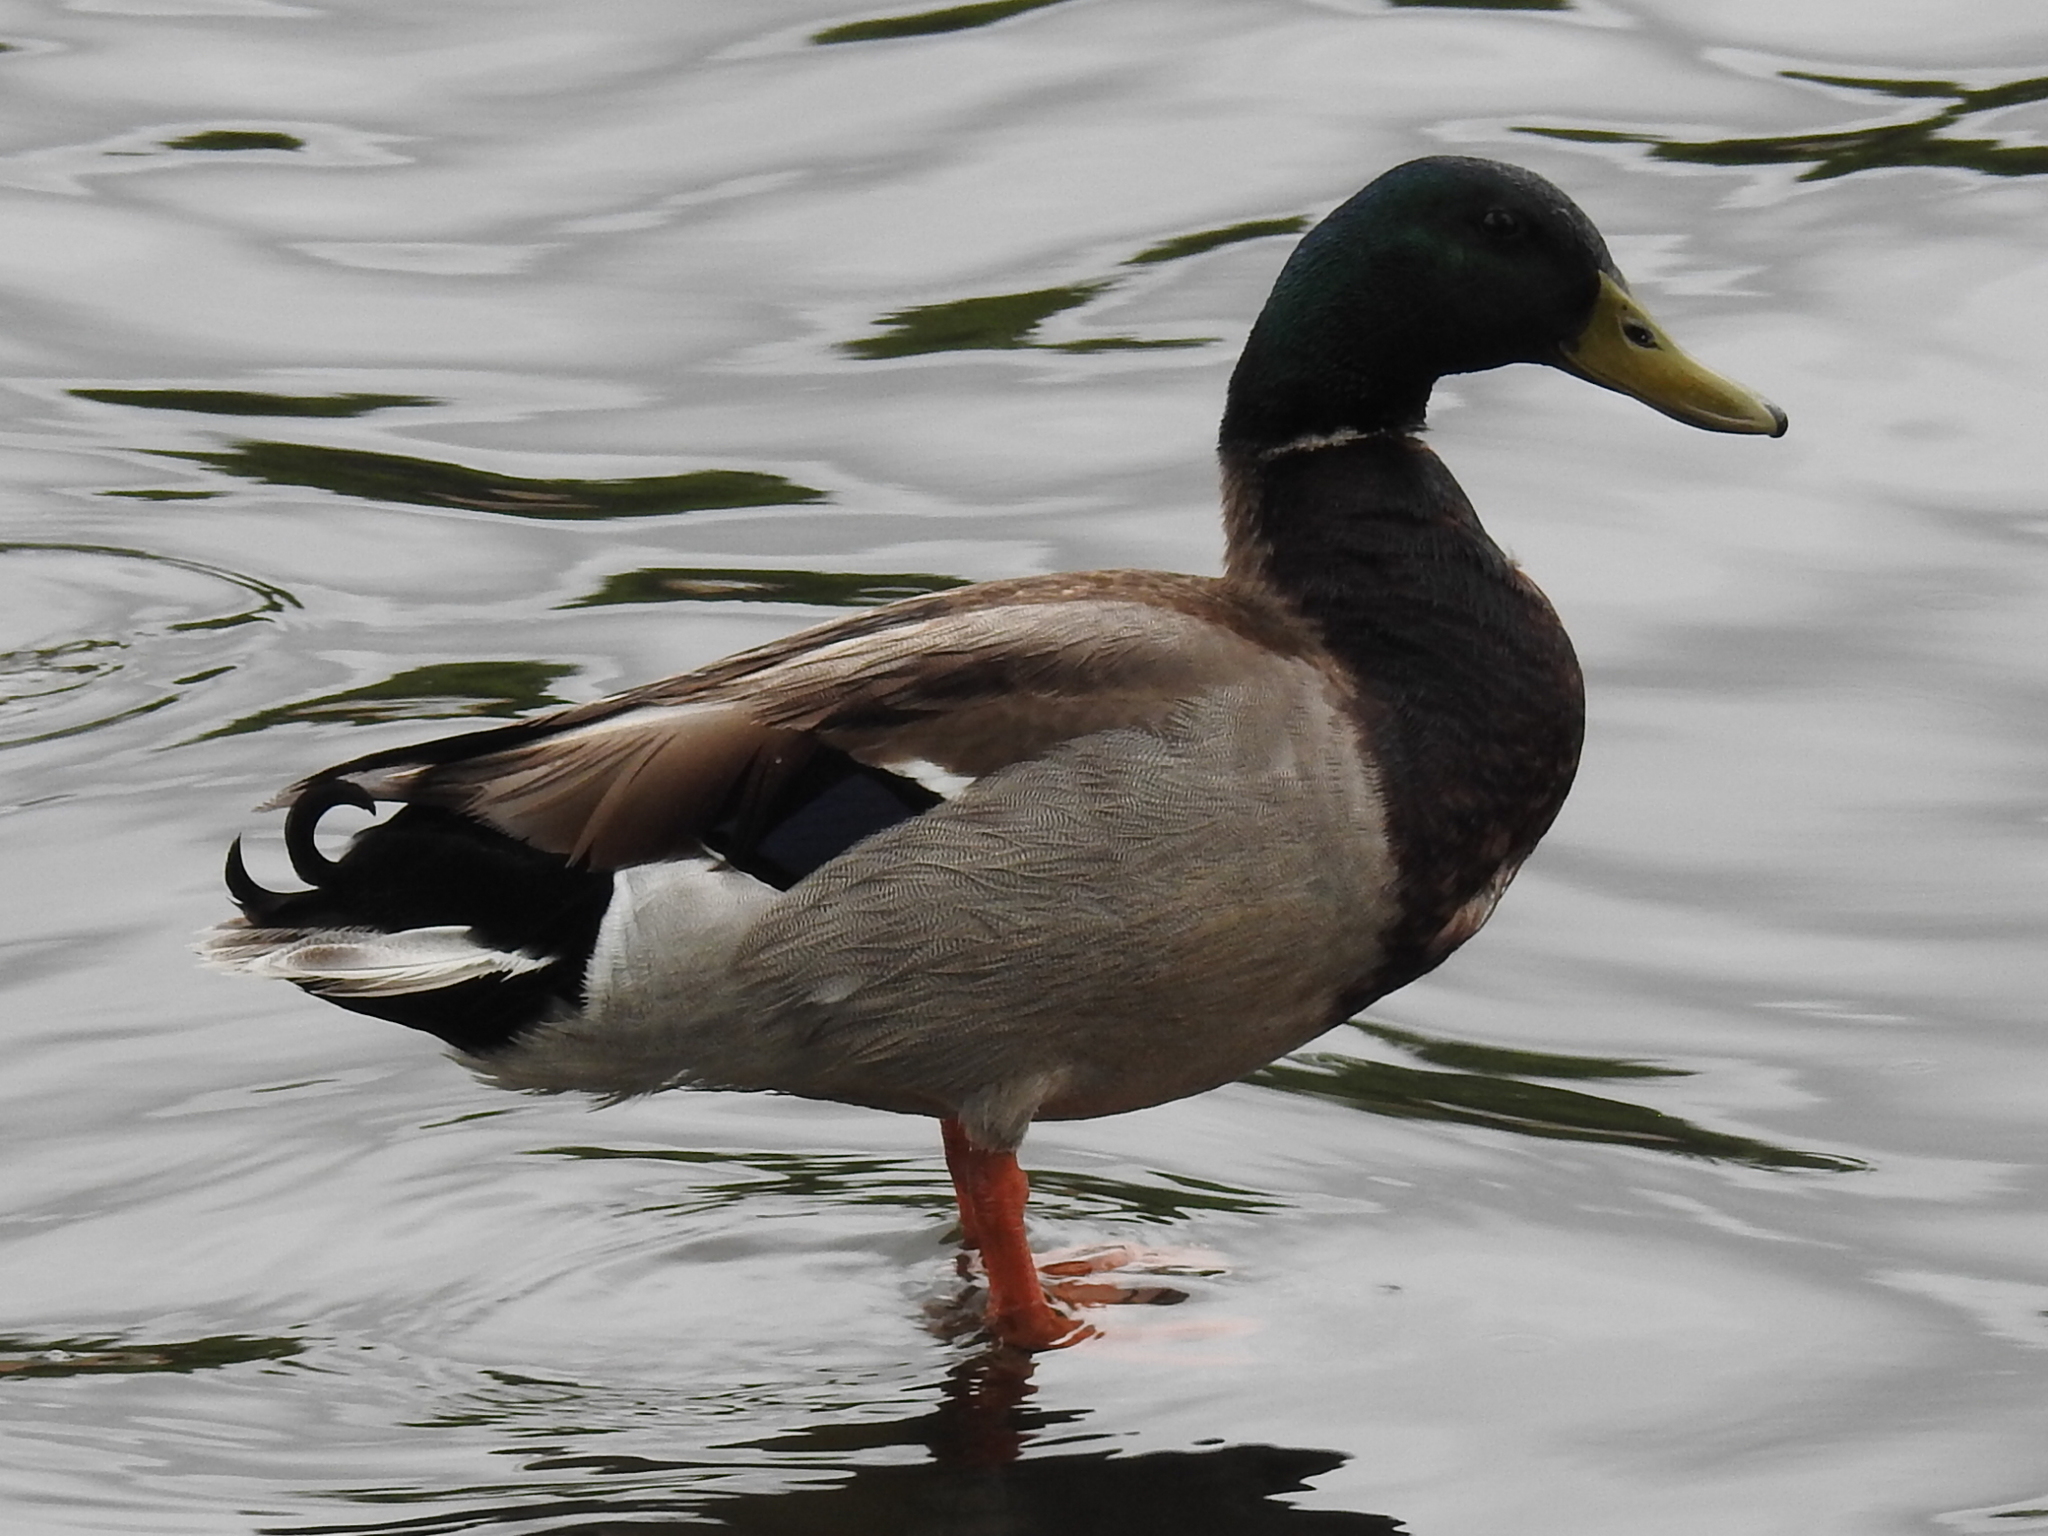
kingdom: Animalia
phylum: Chordata
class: Aves
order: Anseriformes
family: Anatidae
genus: Anas
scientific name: Anas platyrhynchos
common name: Mallard
